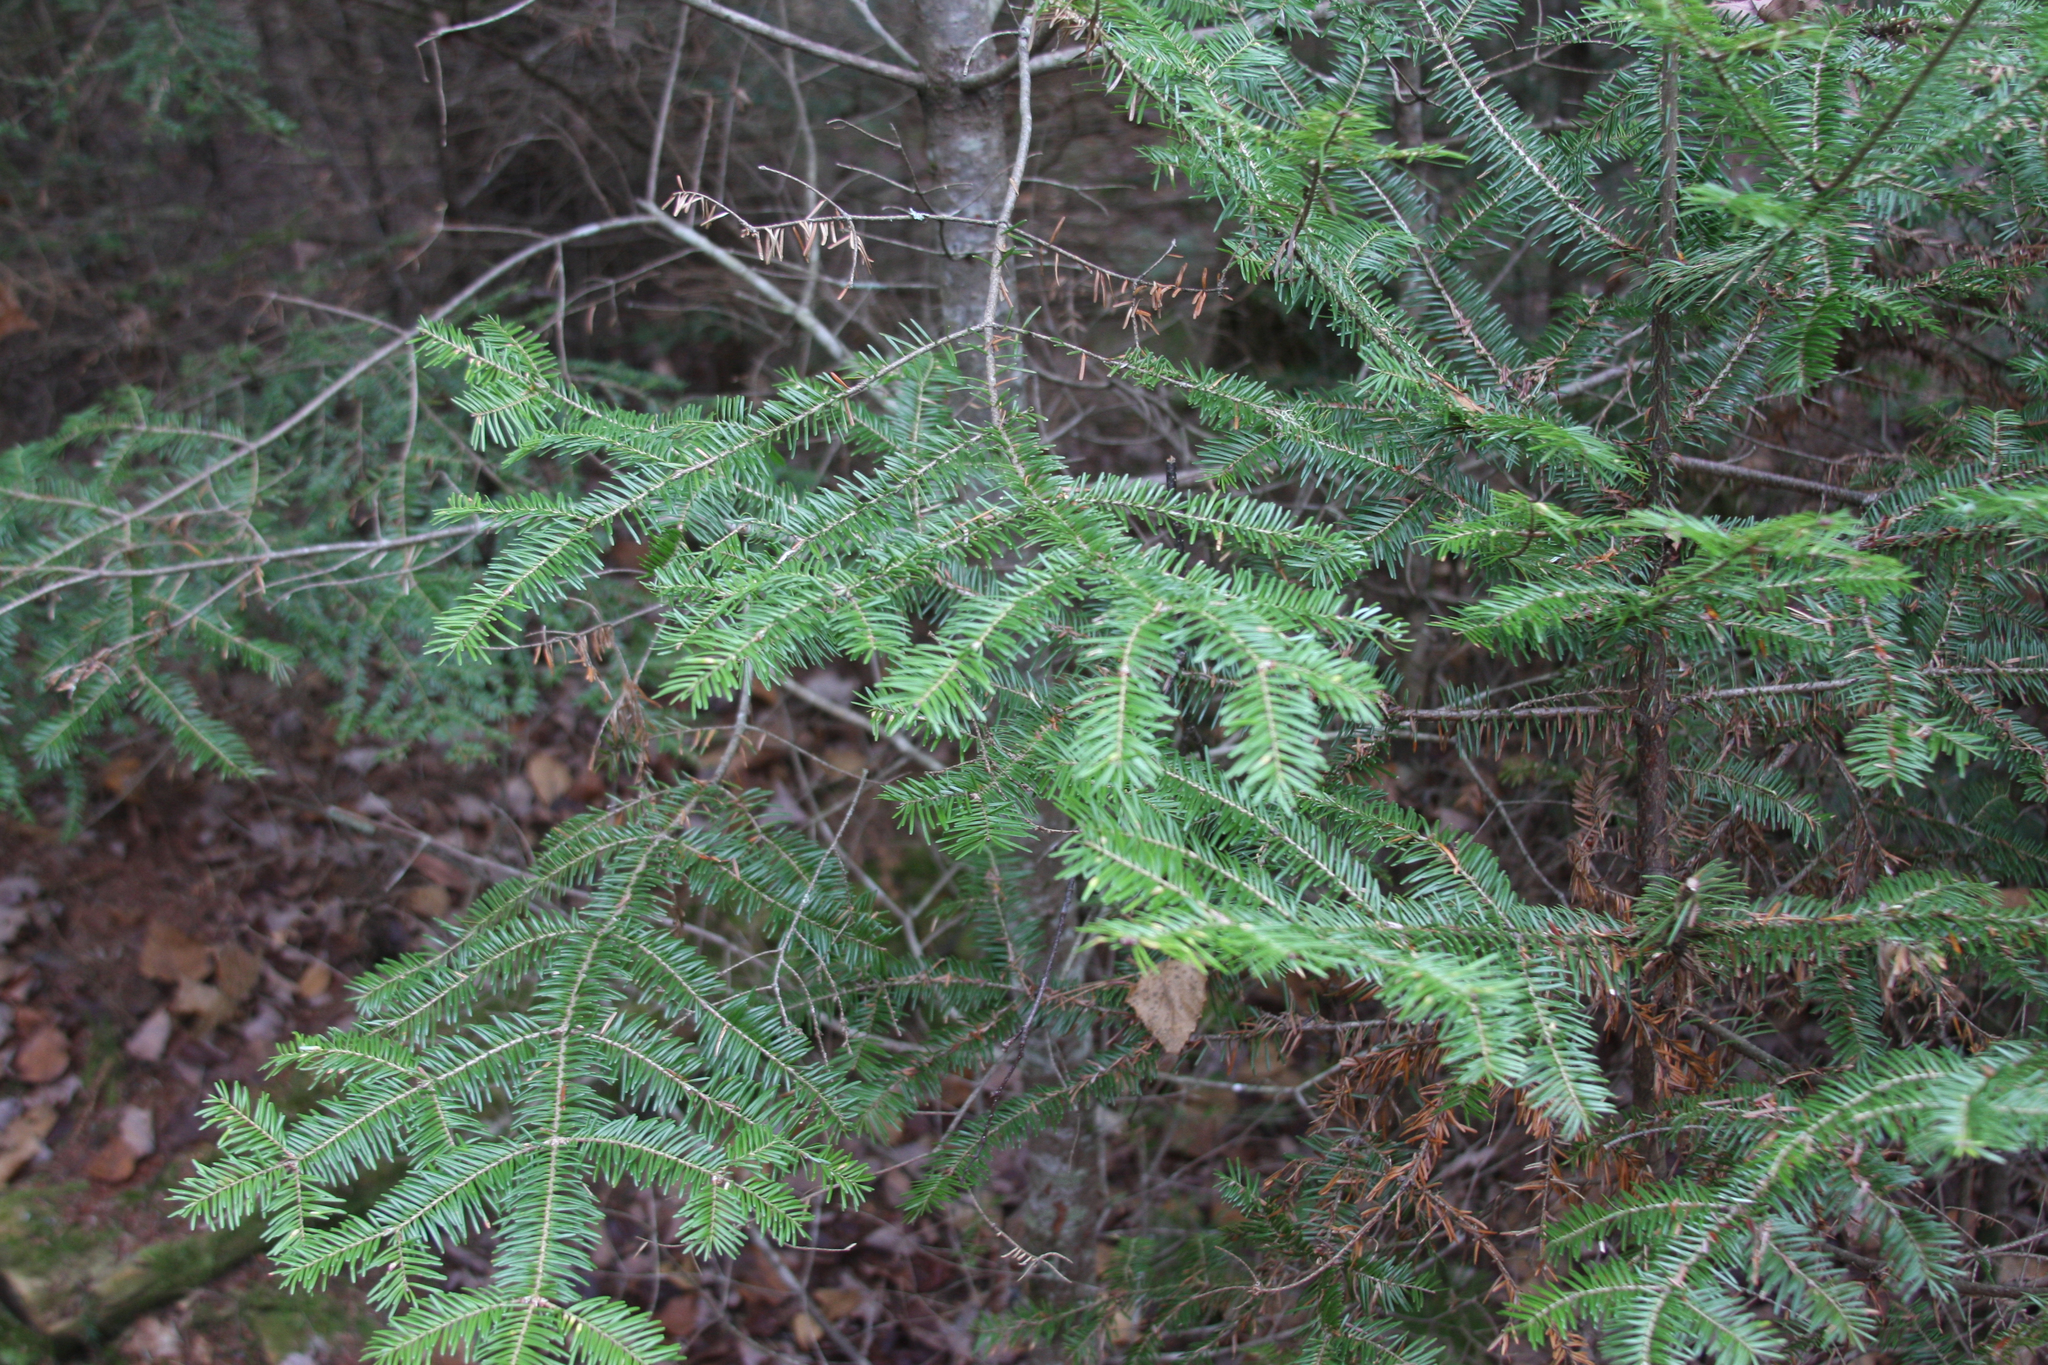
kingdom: Plantae
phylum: Tracheophyta
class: Pinopsida
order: Pinales
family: Pinaceae
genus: Abies
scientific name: Abies balsamea
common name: Balsam fir
